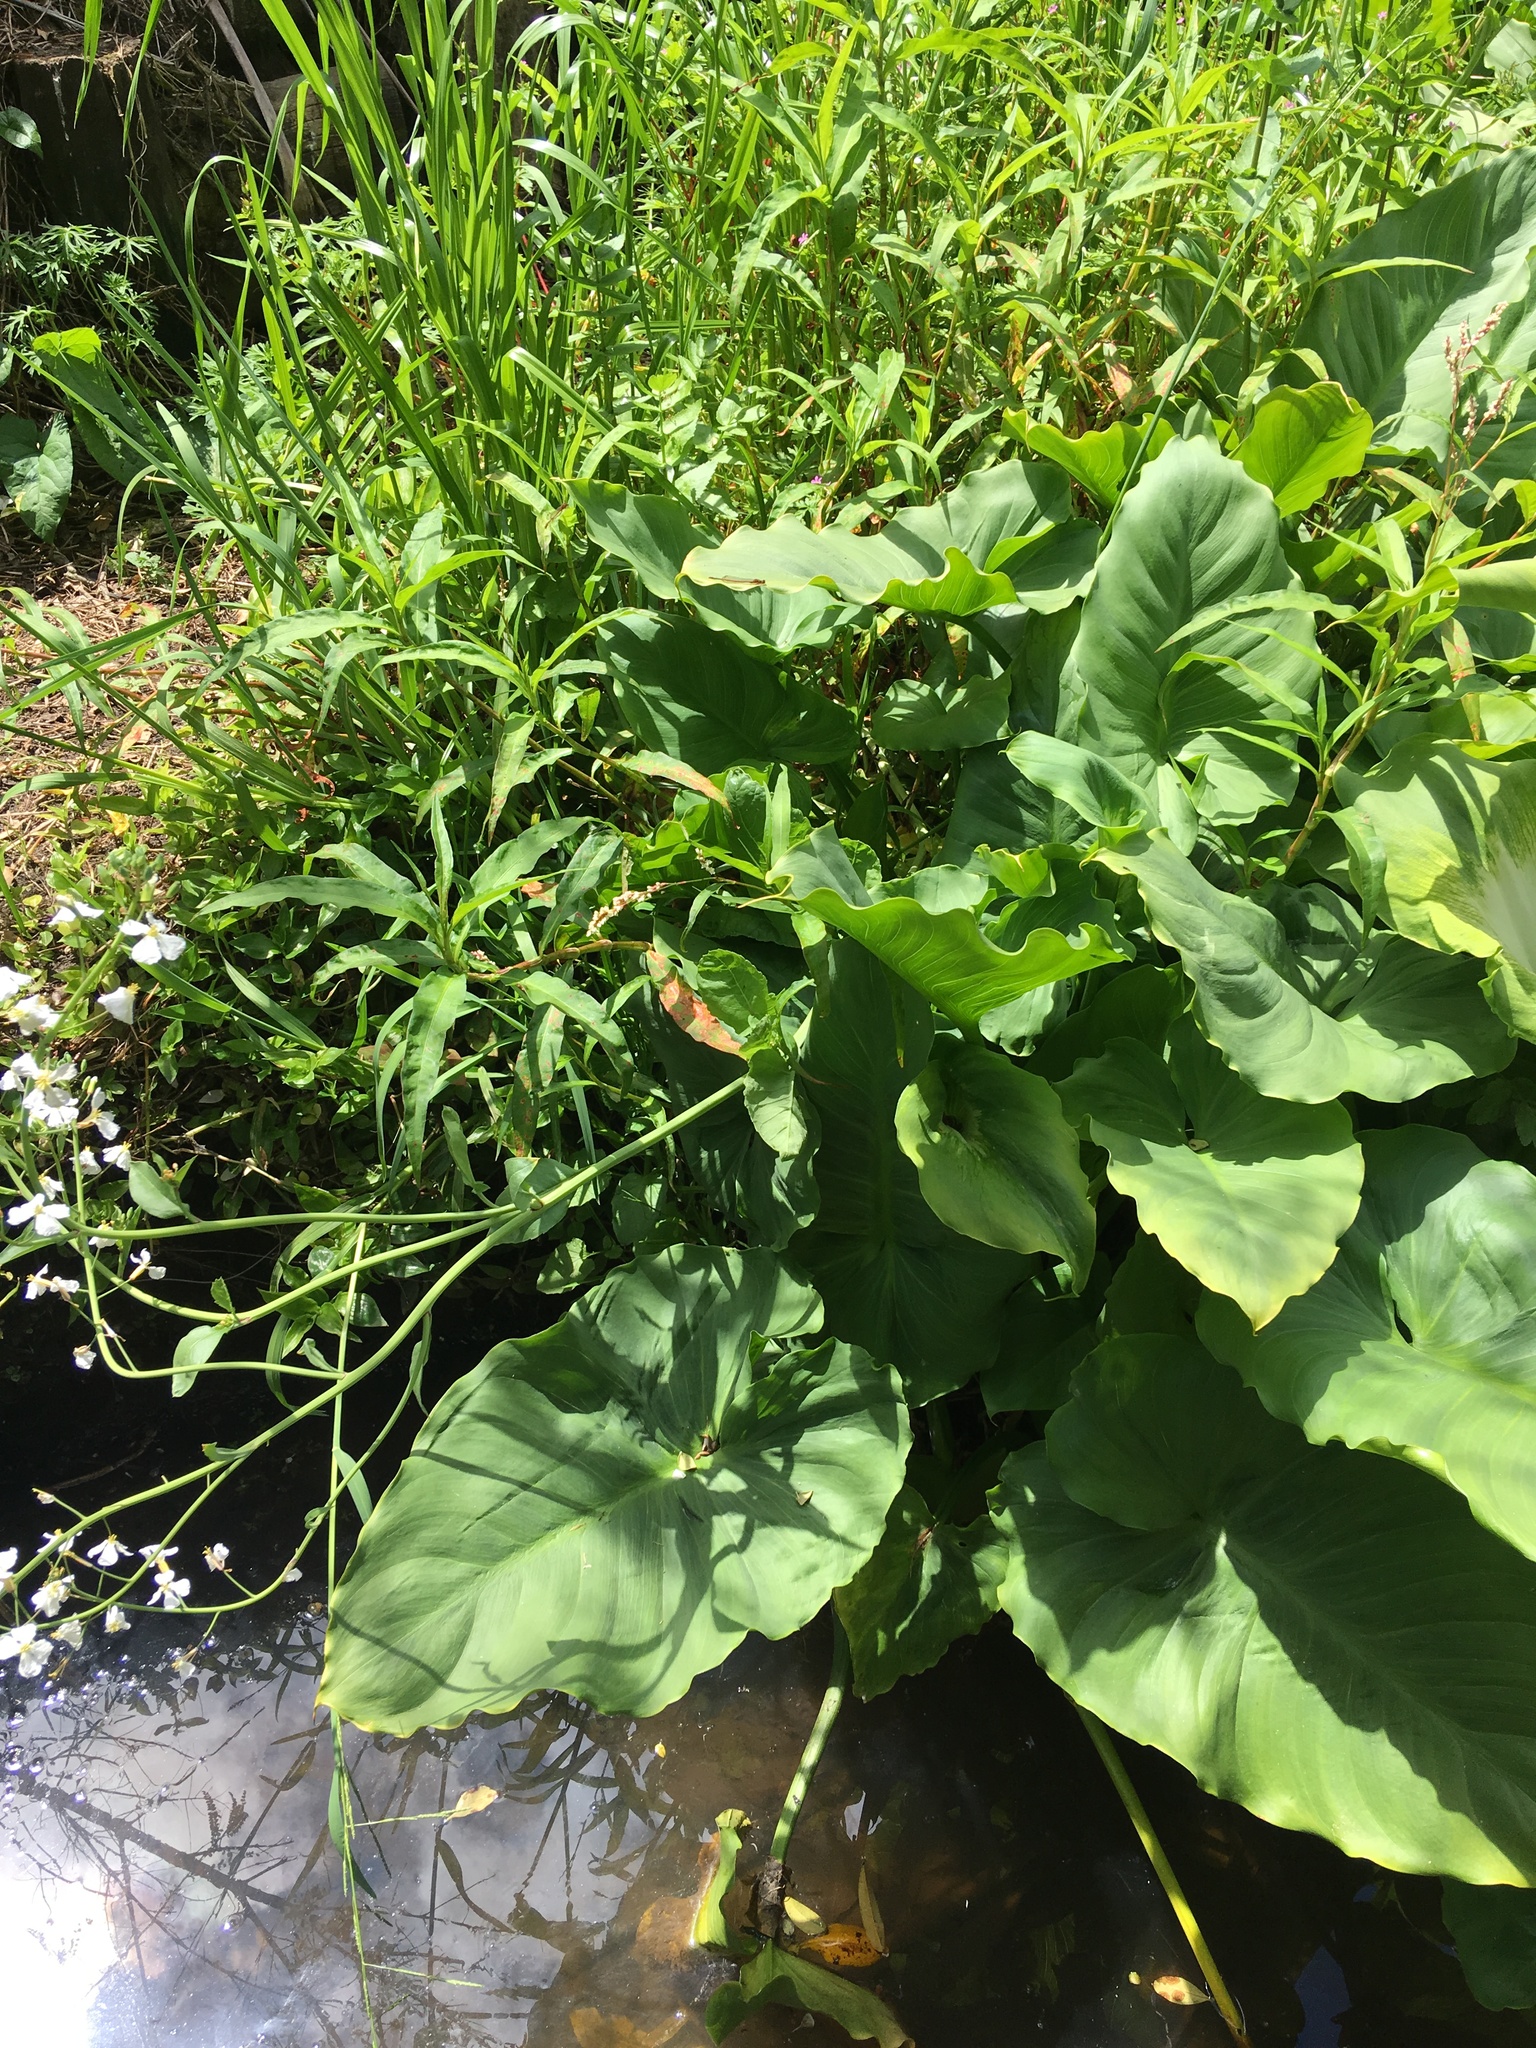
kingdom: Plantae
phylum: Tracheophyta
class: Liliopsida
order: Alismatales
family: Araceae
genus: Zantedeschia
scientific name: Zantedeschia aethiopica
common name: Altar-lily
